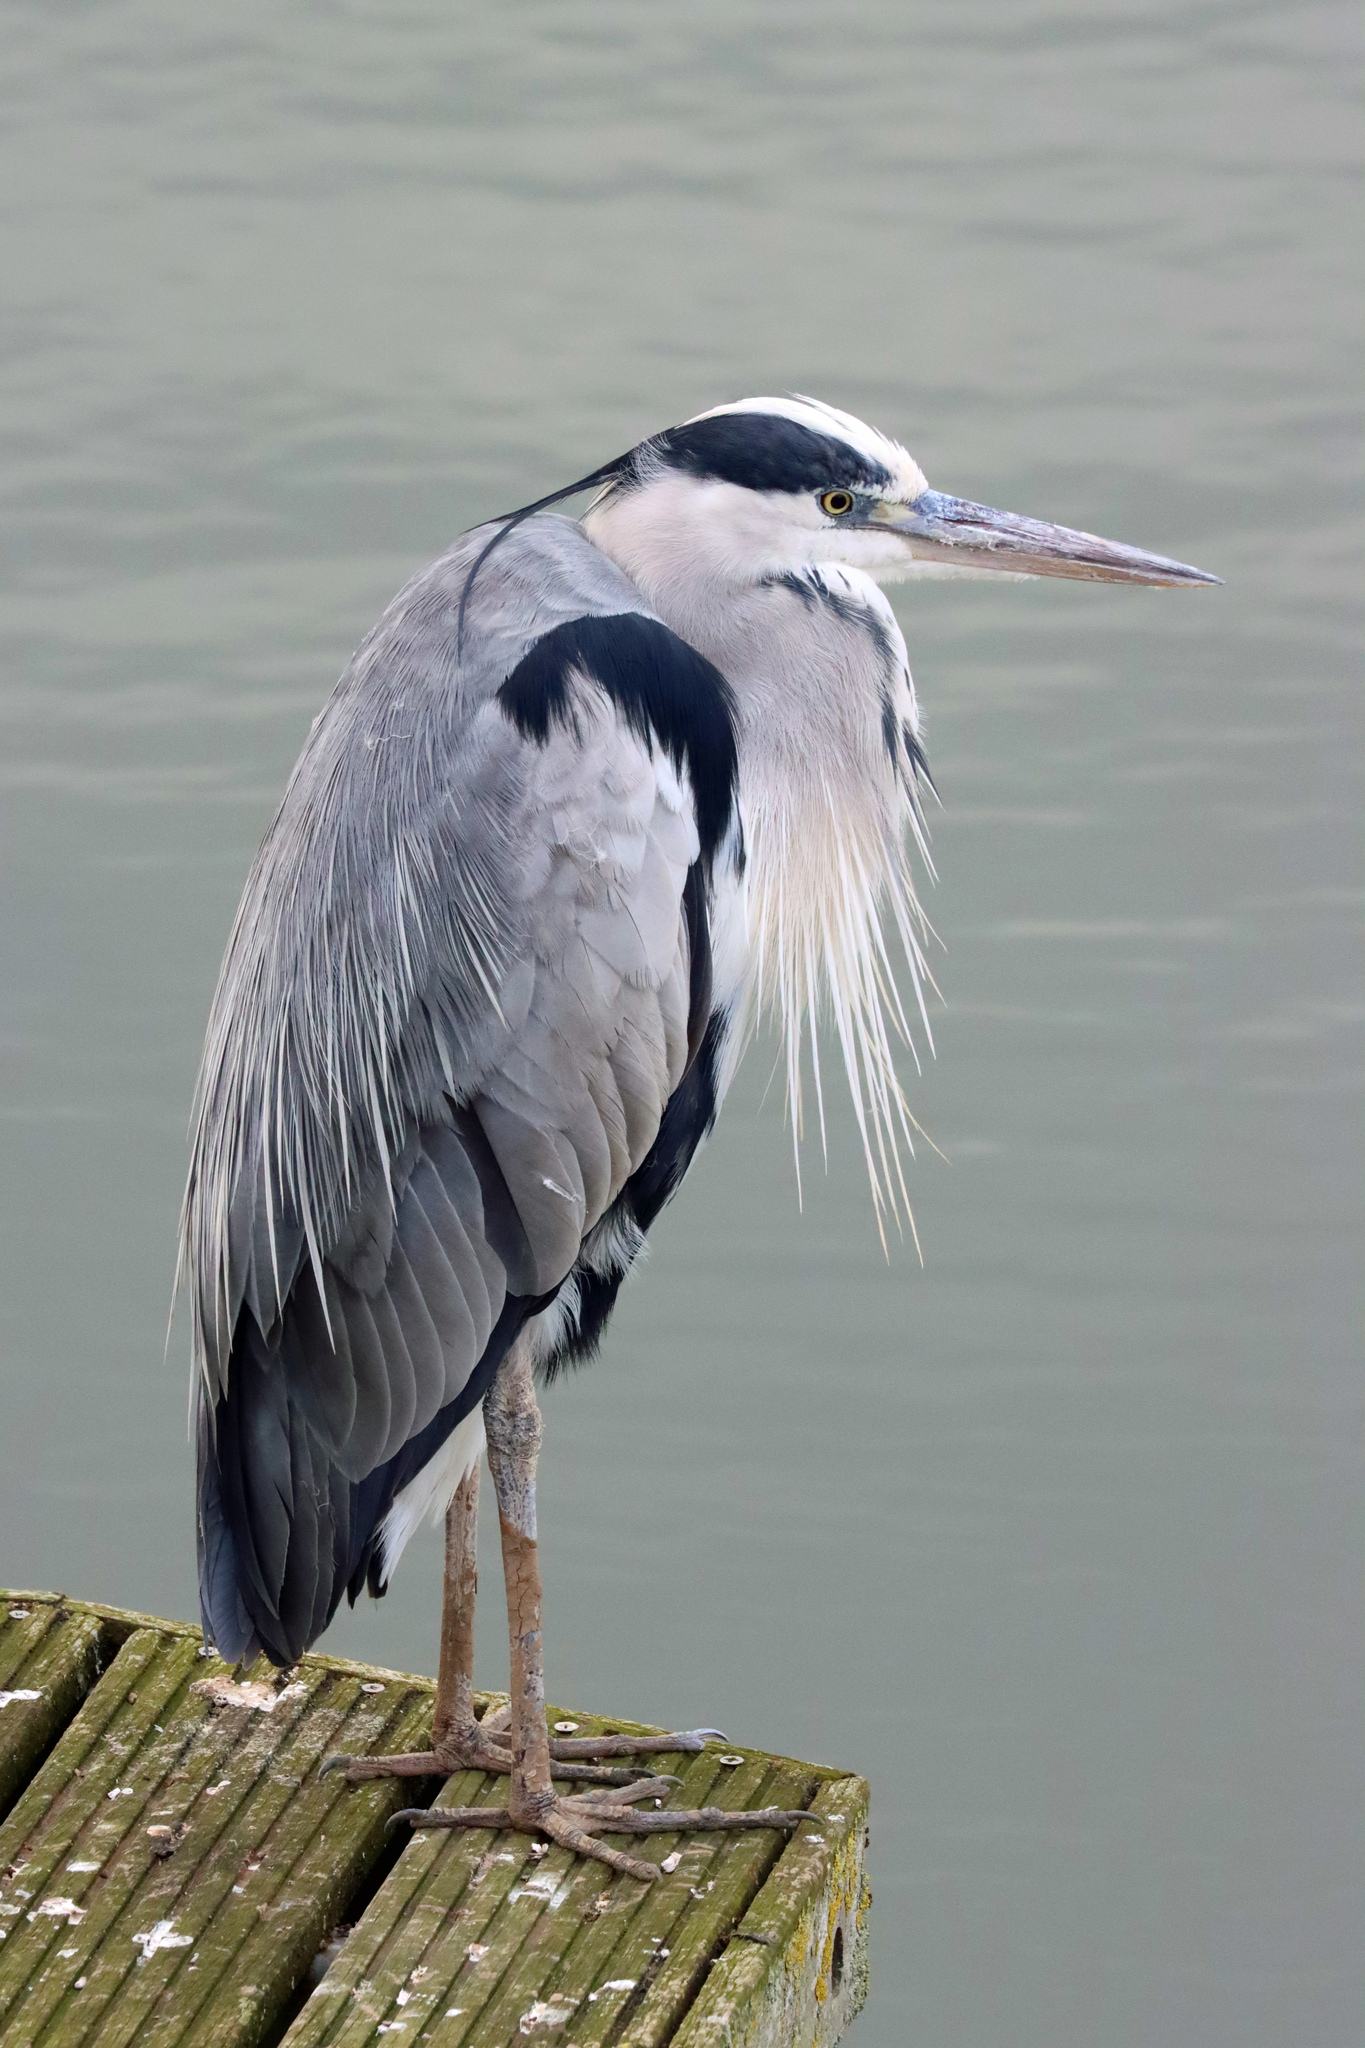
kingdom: Animalia
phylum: Chordata
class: Aves
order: Pelecaniformes
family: Ardeidae
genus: Ardea
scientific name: Ardea cinerea
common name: Grey heron
